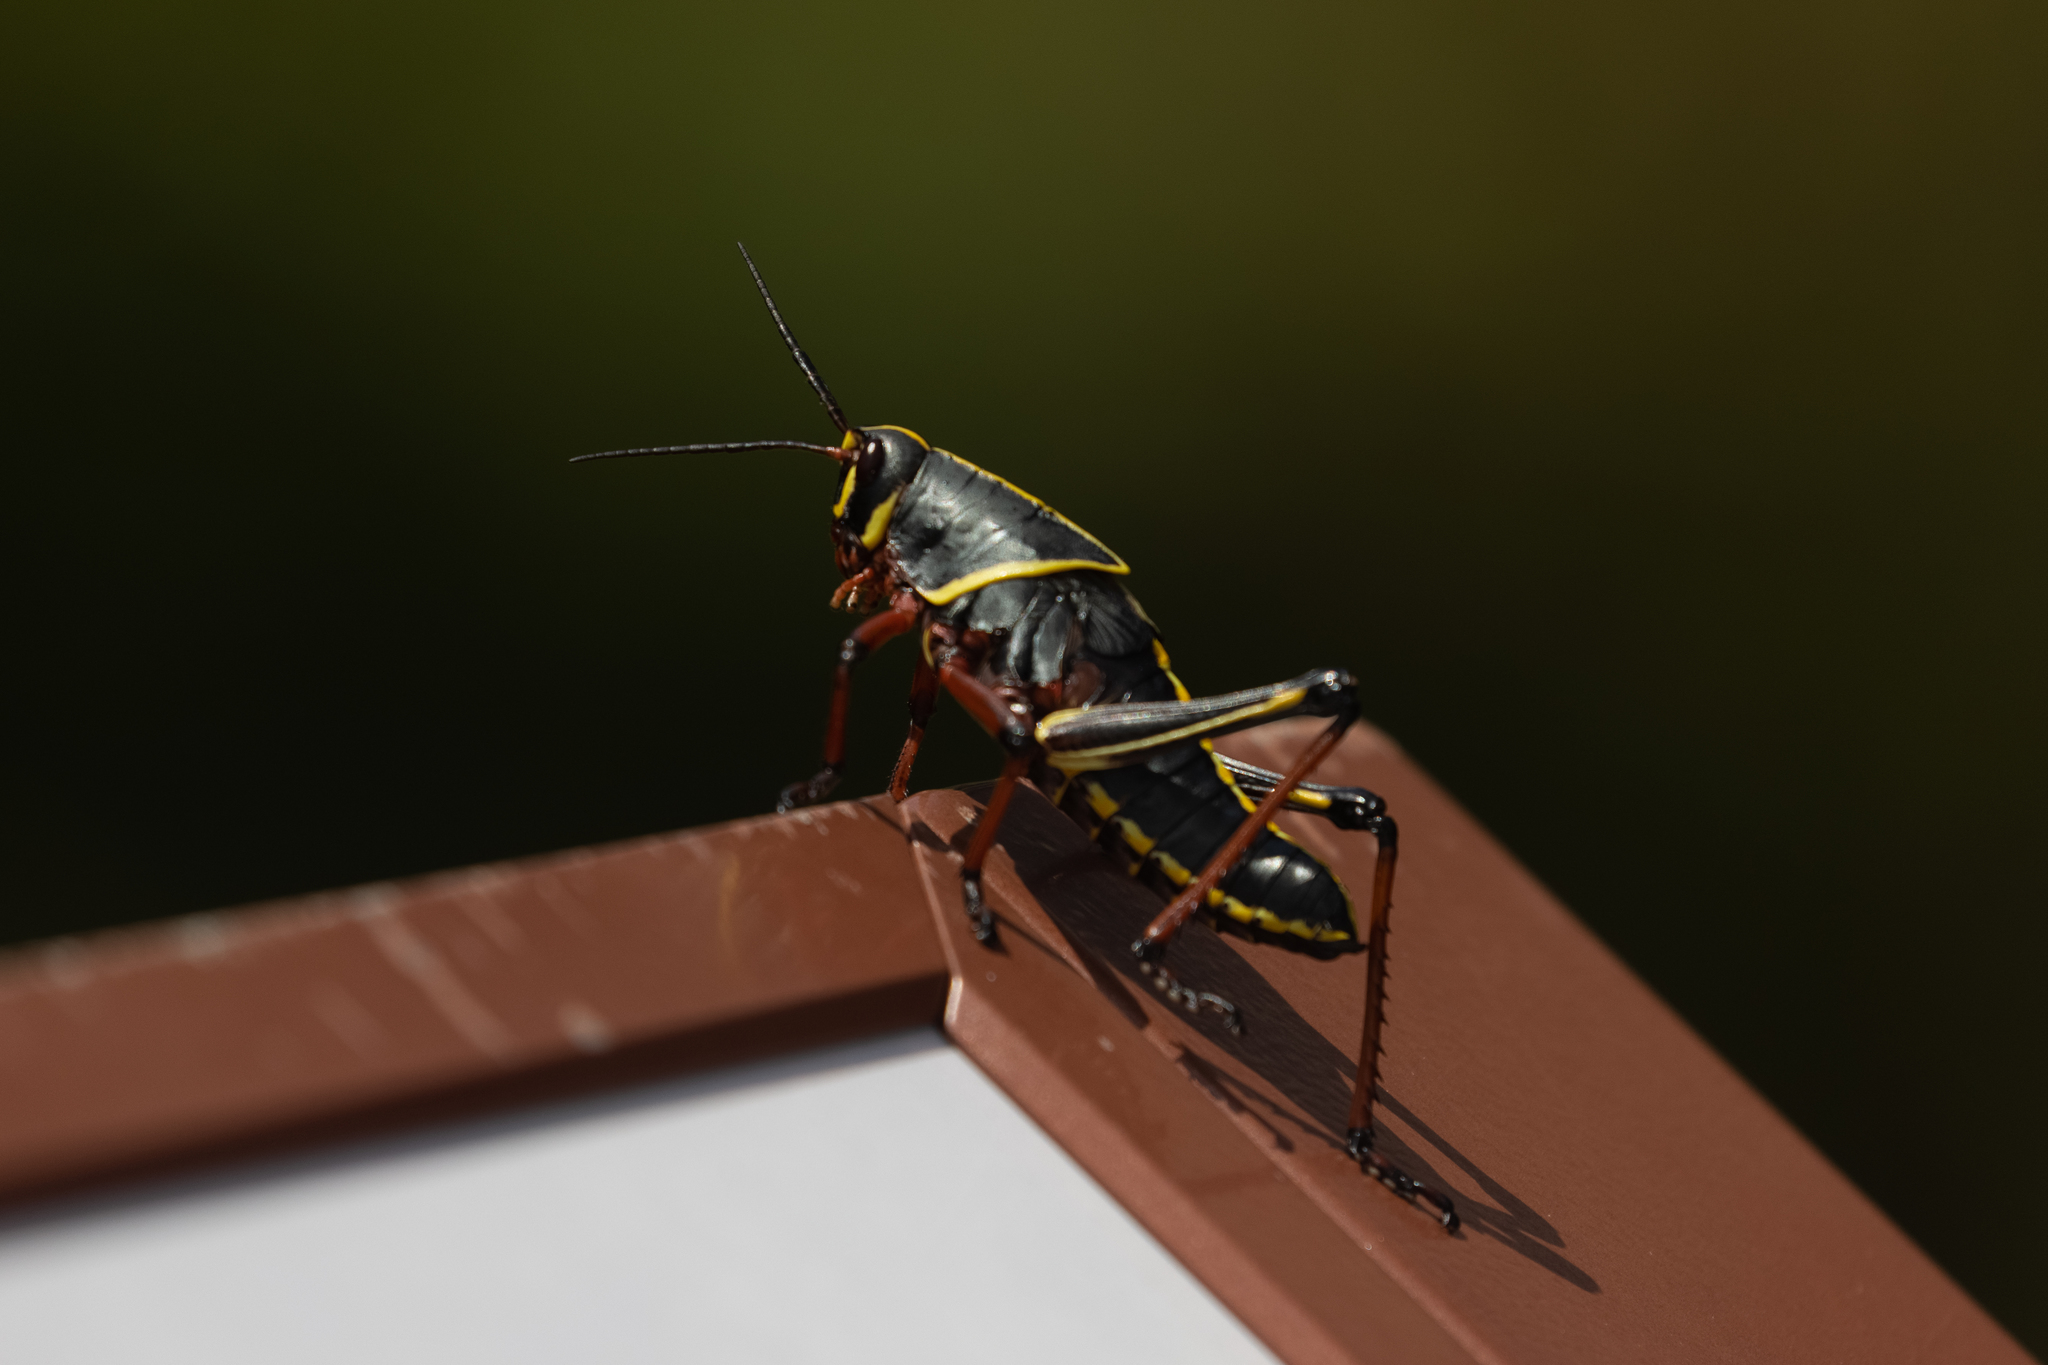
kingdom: Animalia
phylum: Arthropoda
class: Insecta
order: Orthoptera
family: Romaleidae
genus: Romalea
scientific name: Romalea microptera
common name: Eastern lubber grasshopper
